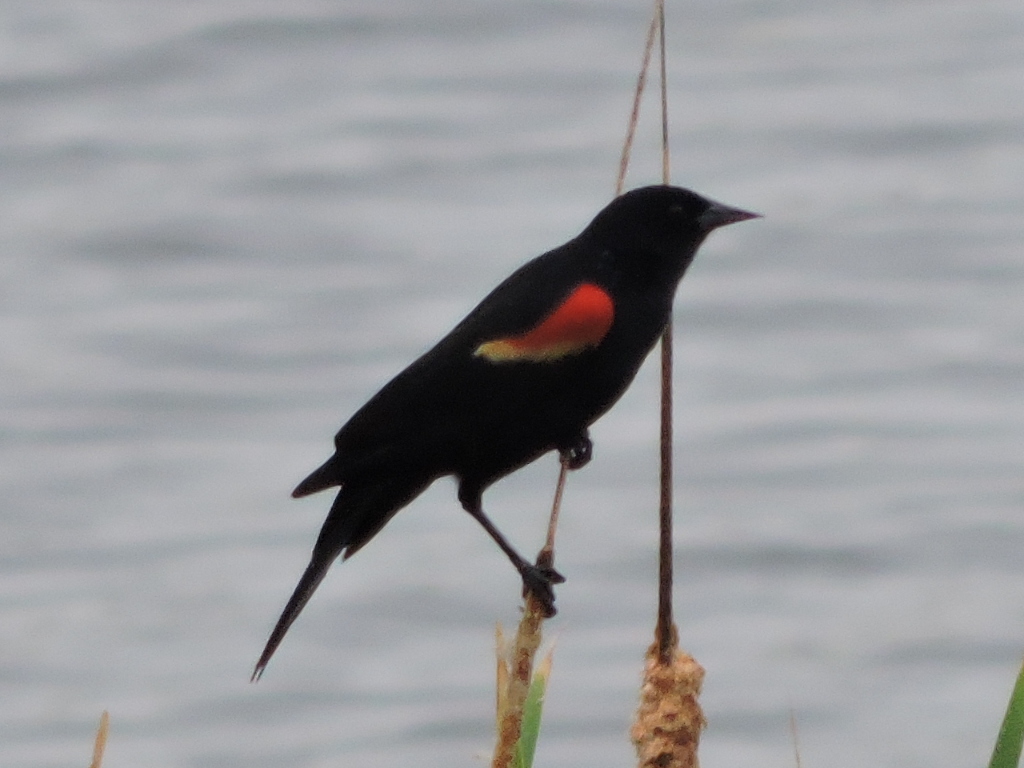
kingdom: Animalia
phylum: Chordata
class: Aves
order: Passeriformes
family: Icteridae
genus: Agelaius
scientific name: Agelaius phoeniceus
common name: Red-winged blackbird
